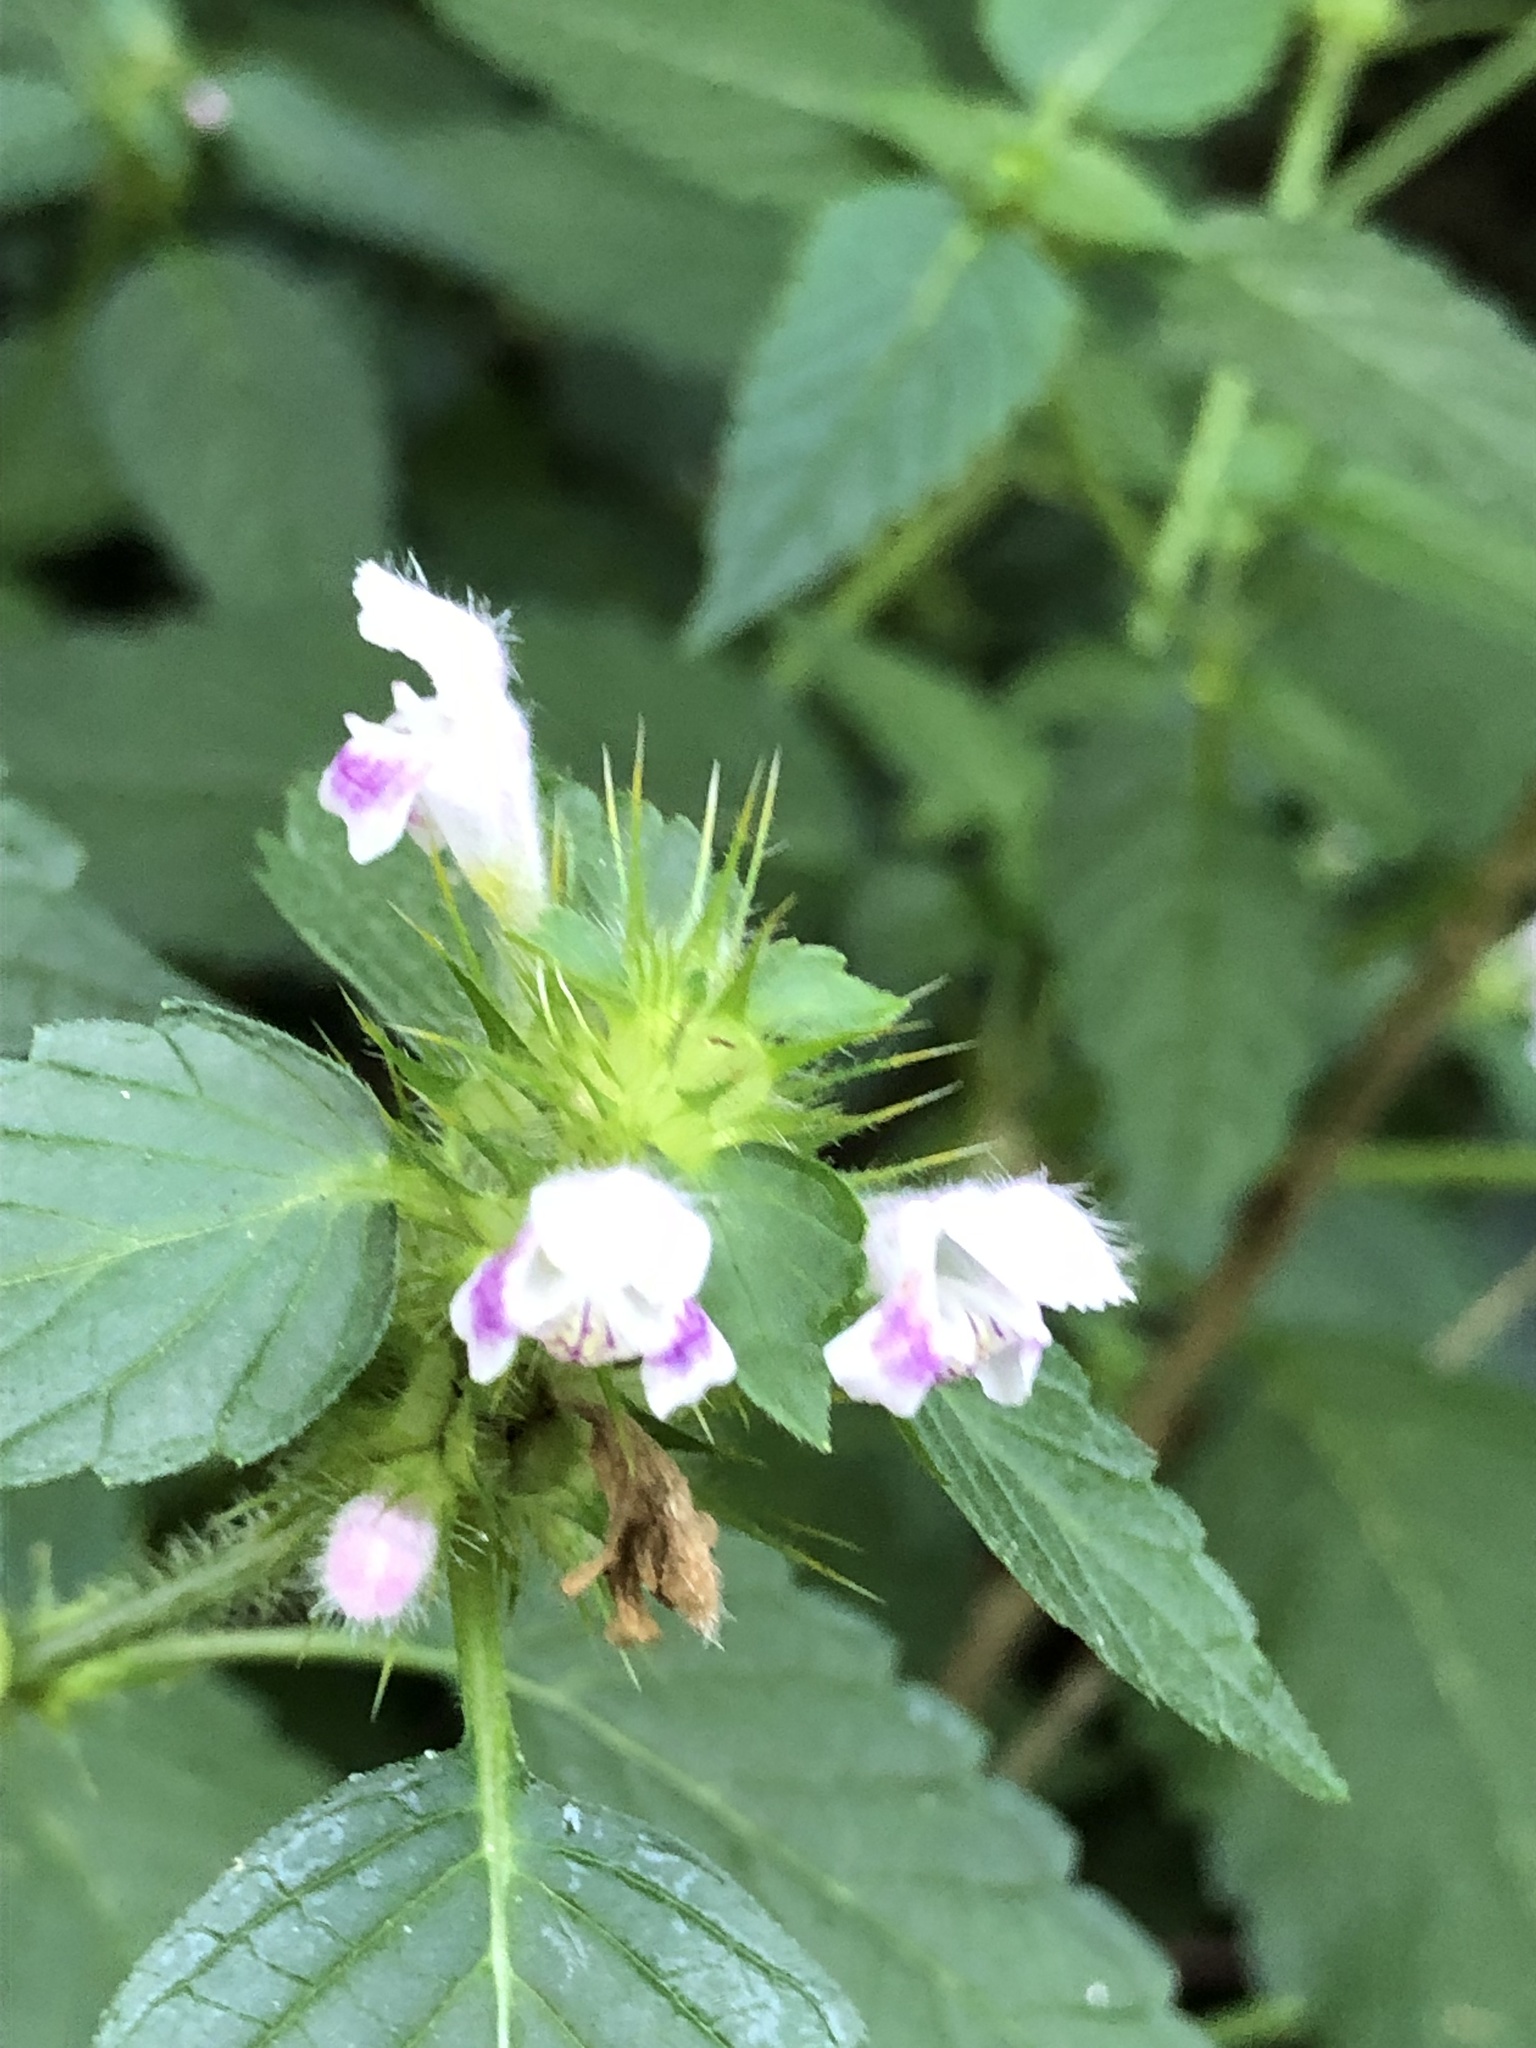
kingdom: Plantae
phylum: Tracheophyta
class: Magnoliopsida
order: Lamiales
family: Lamiaceae
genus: Galeopsis
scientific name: Galeopsis tetrahit
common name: Common hemp-nettle
